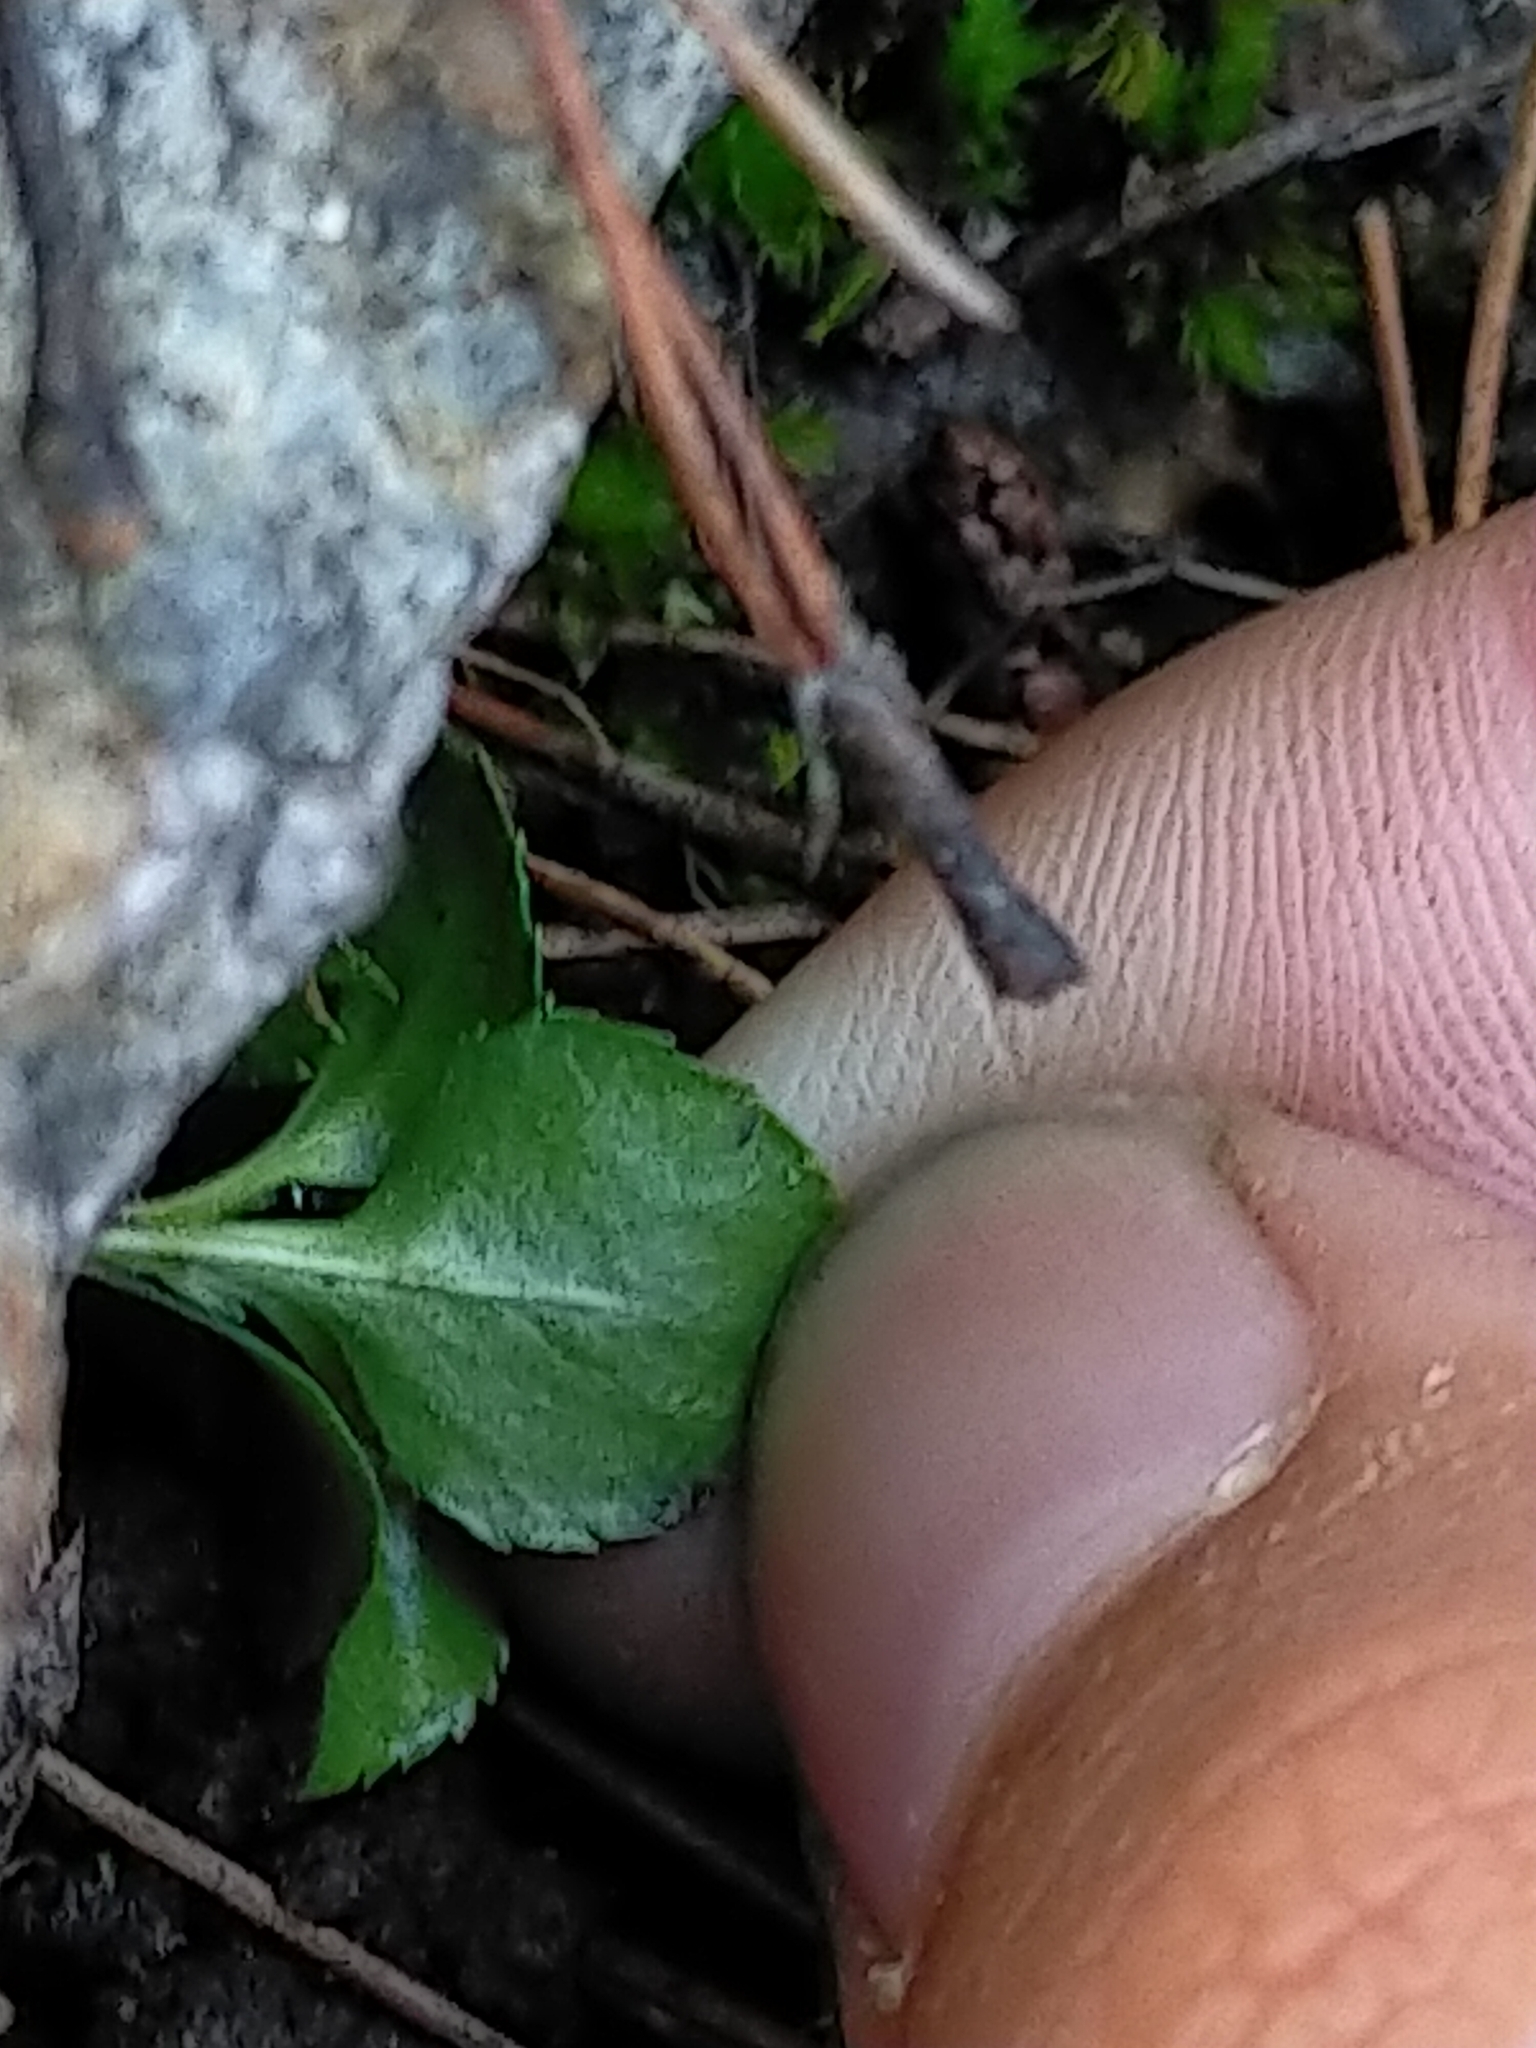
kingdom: Plantae
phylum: Tracheophyta
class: Magnoliopsida
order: Ericales
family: Ericaceae
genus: Moneses
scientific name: Moneses uniflora
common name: One-flowered wintergreen
